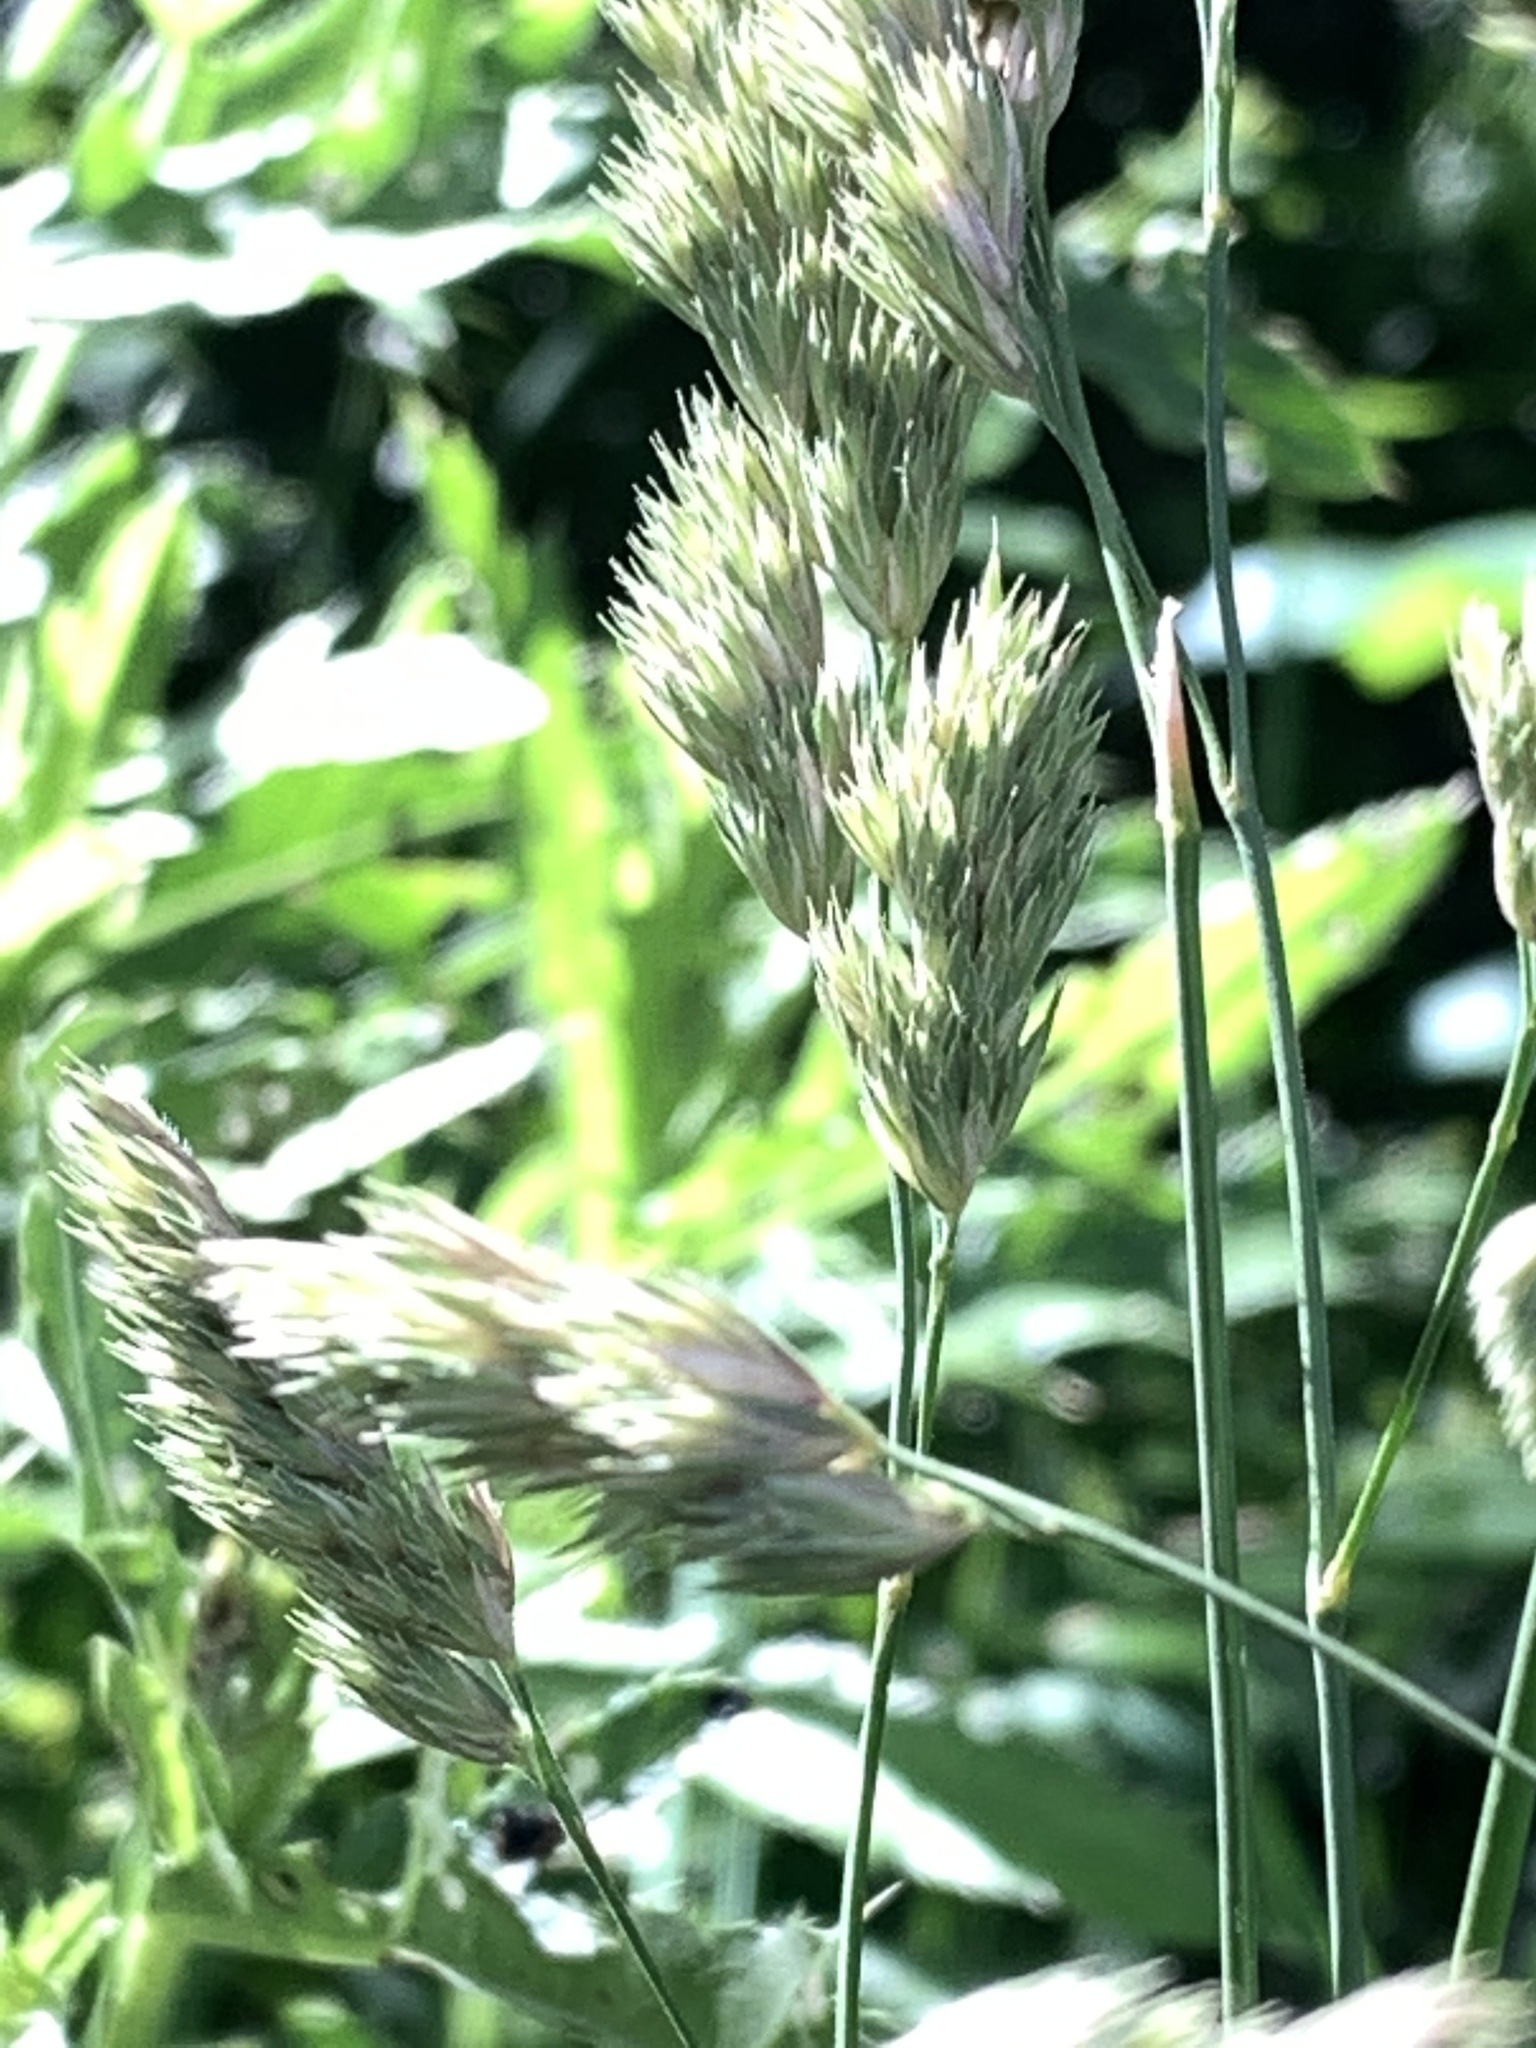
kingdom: Plantae
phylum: Tracheophyta
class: Liliopsida
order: Poales
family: Poaceae
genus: Dactylis
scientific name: Dactylis glomerata
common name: Orchardgrass
